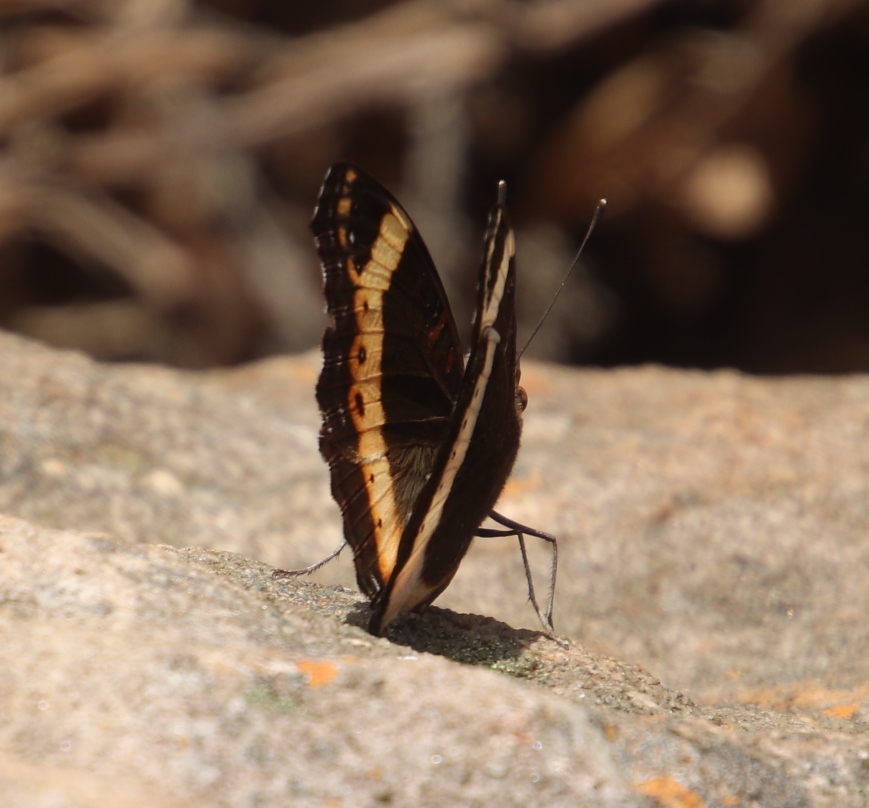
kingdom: Animalia
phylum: Arthropoda
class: Insecta
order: Lepidoptera
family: Nymphalidae
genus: Junonia
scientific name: Junonia archesia
